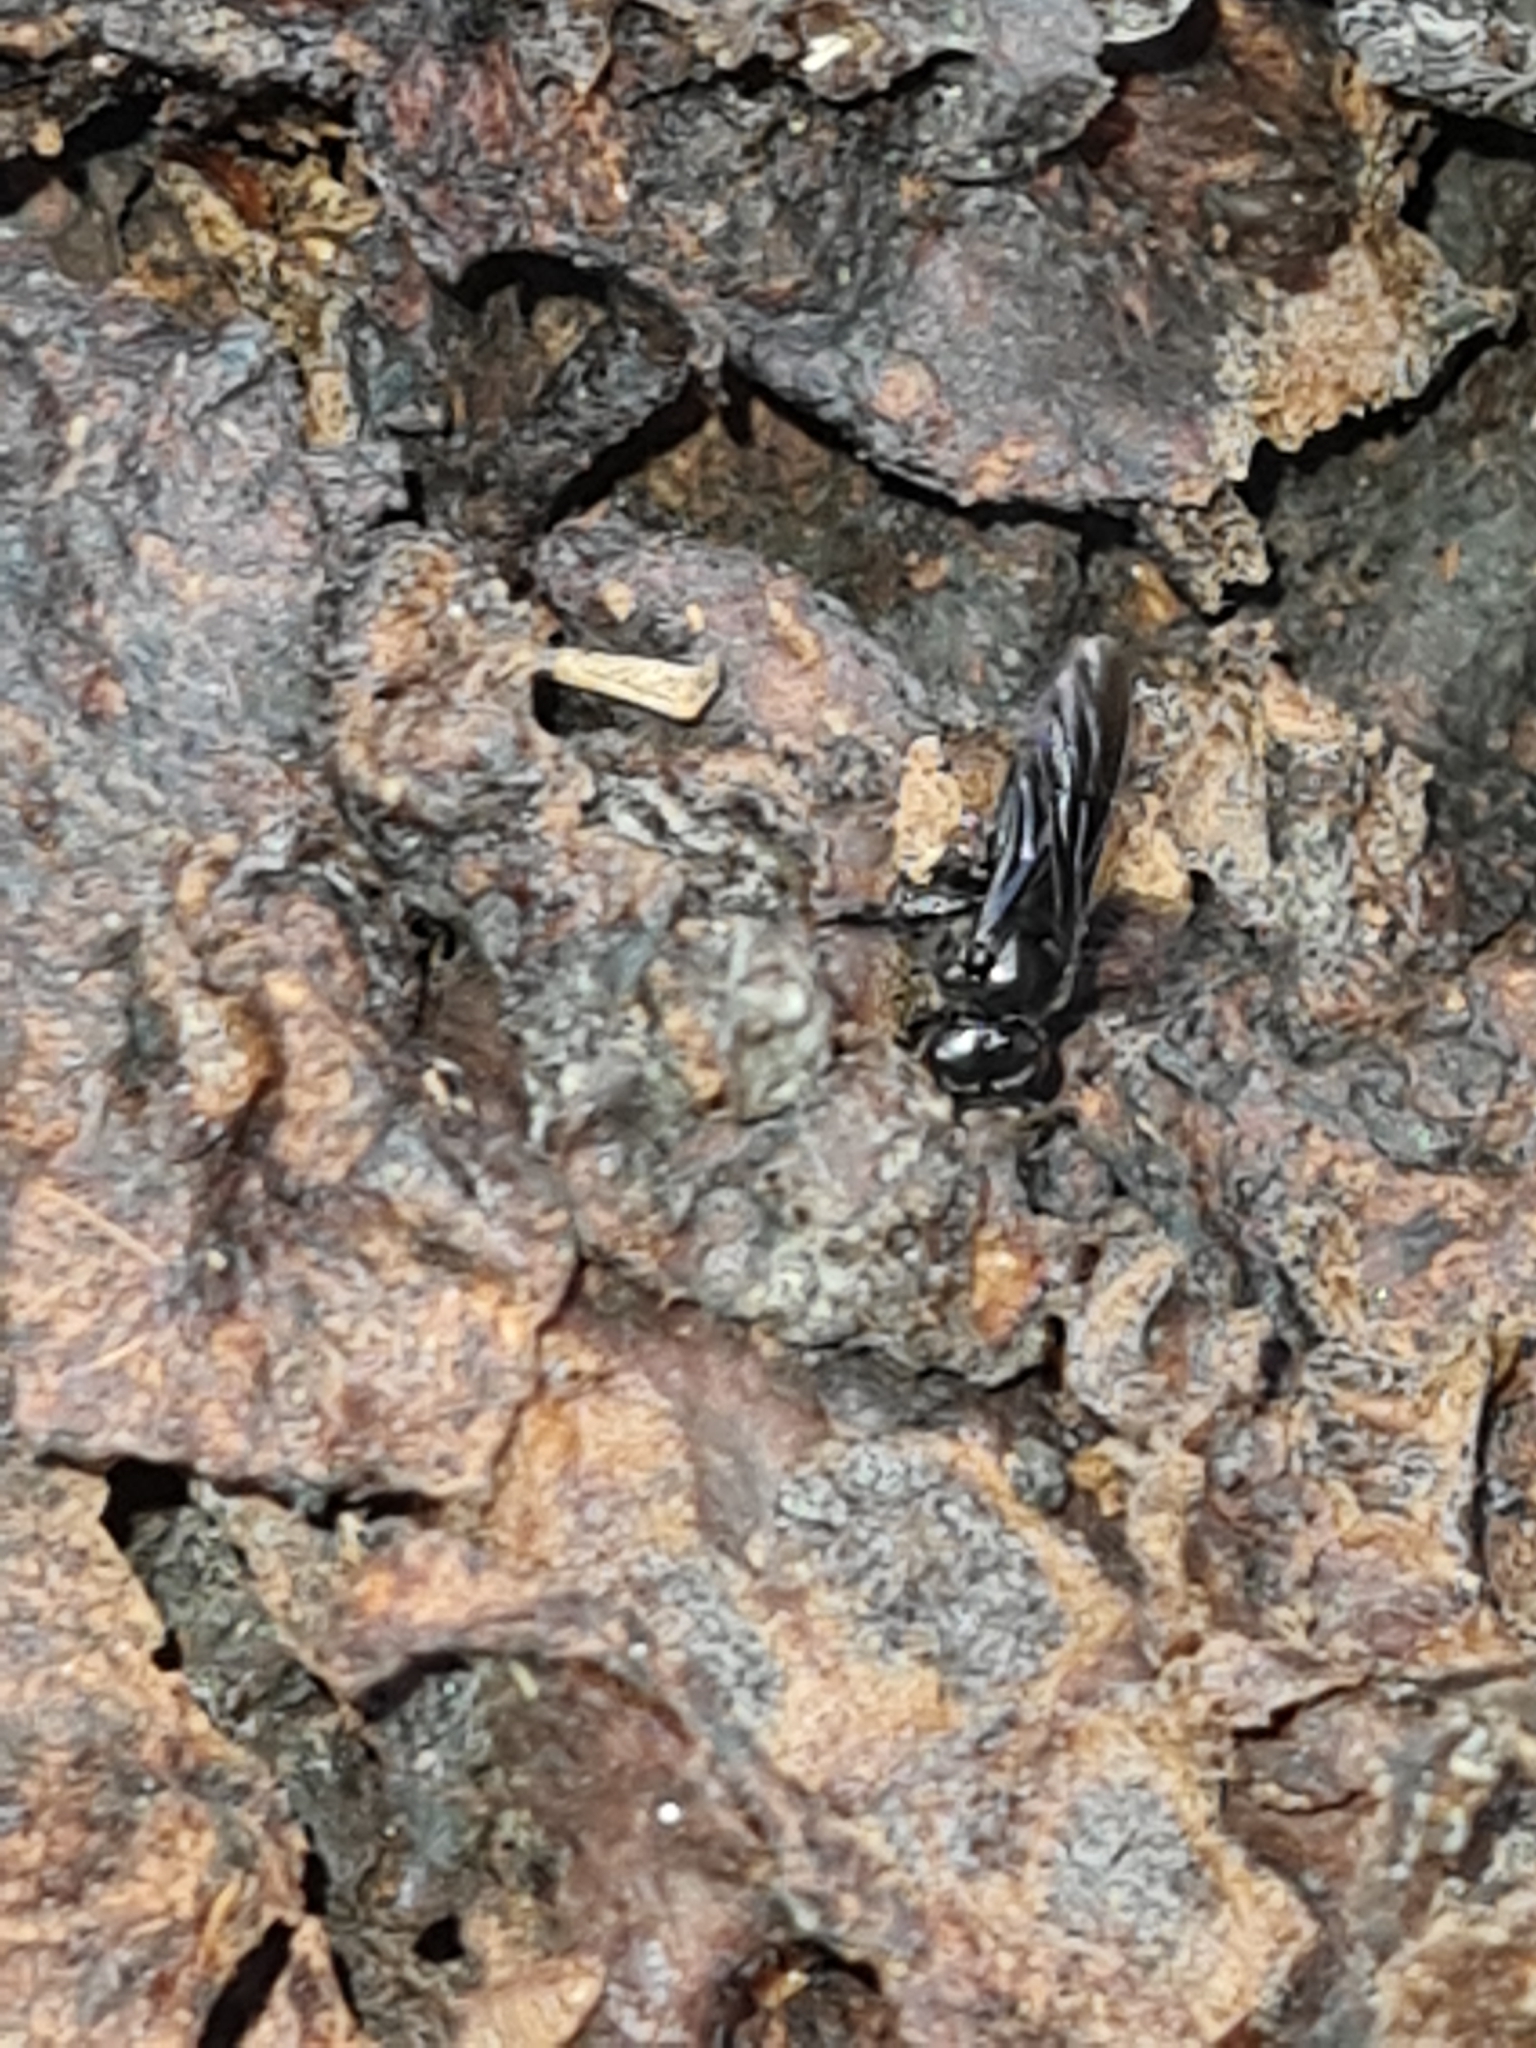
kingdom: Animalia
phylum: Arthropoda
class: Insecta
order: Hymenoptera
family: Apidae
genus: Trigona
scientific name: Trigona spinipes
